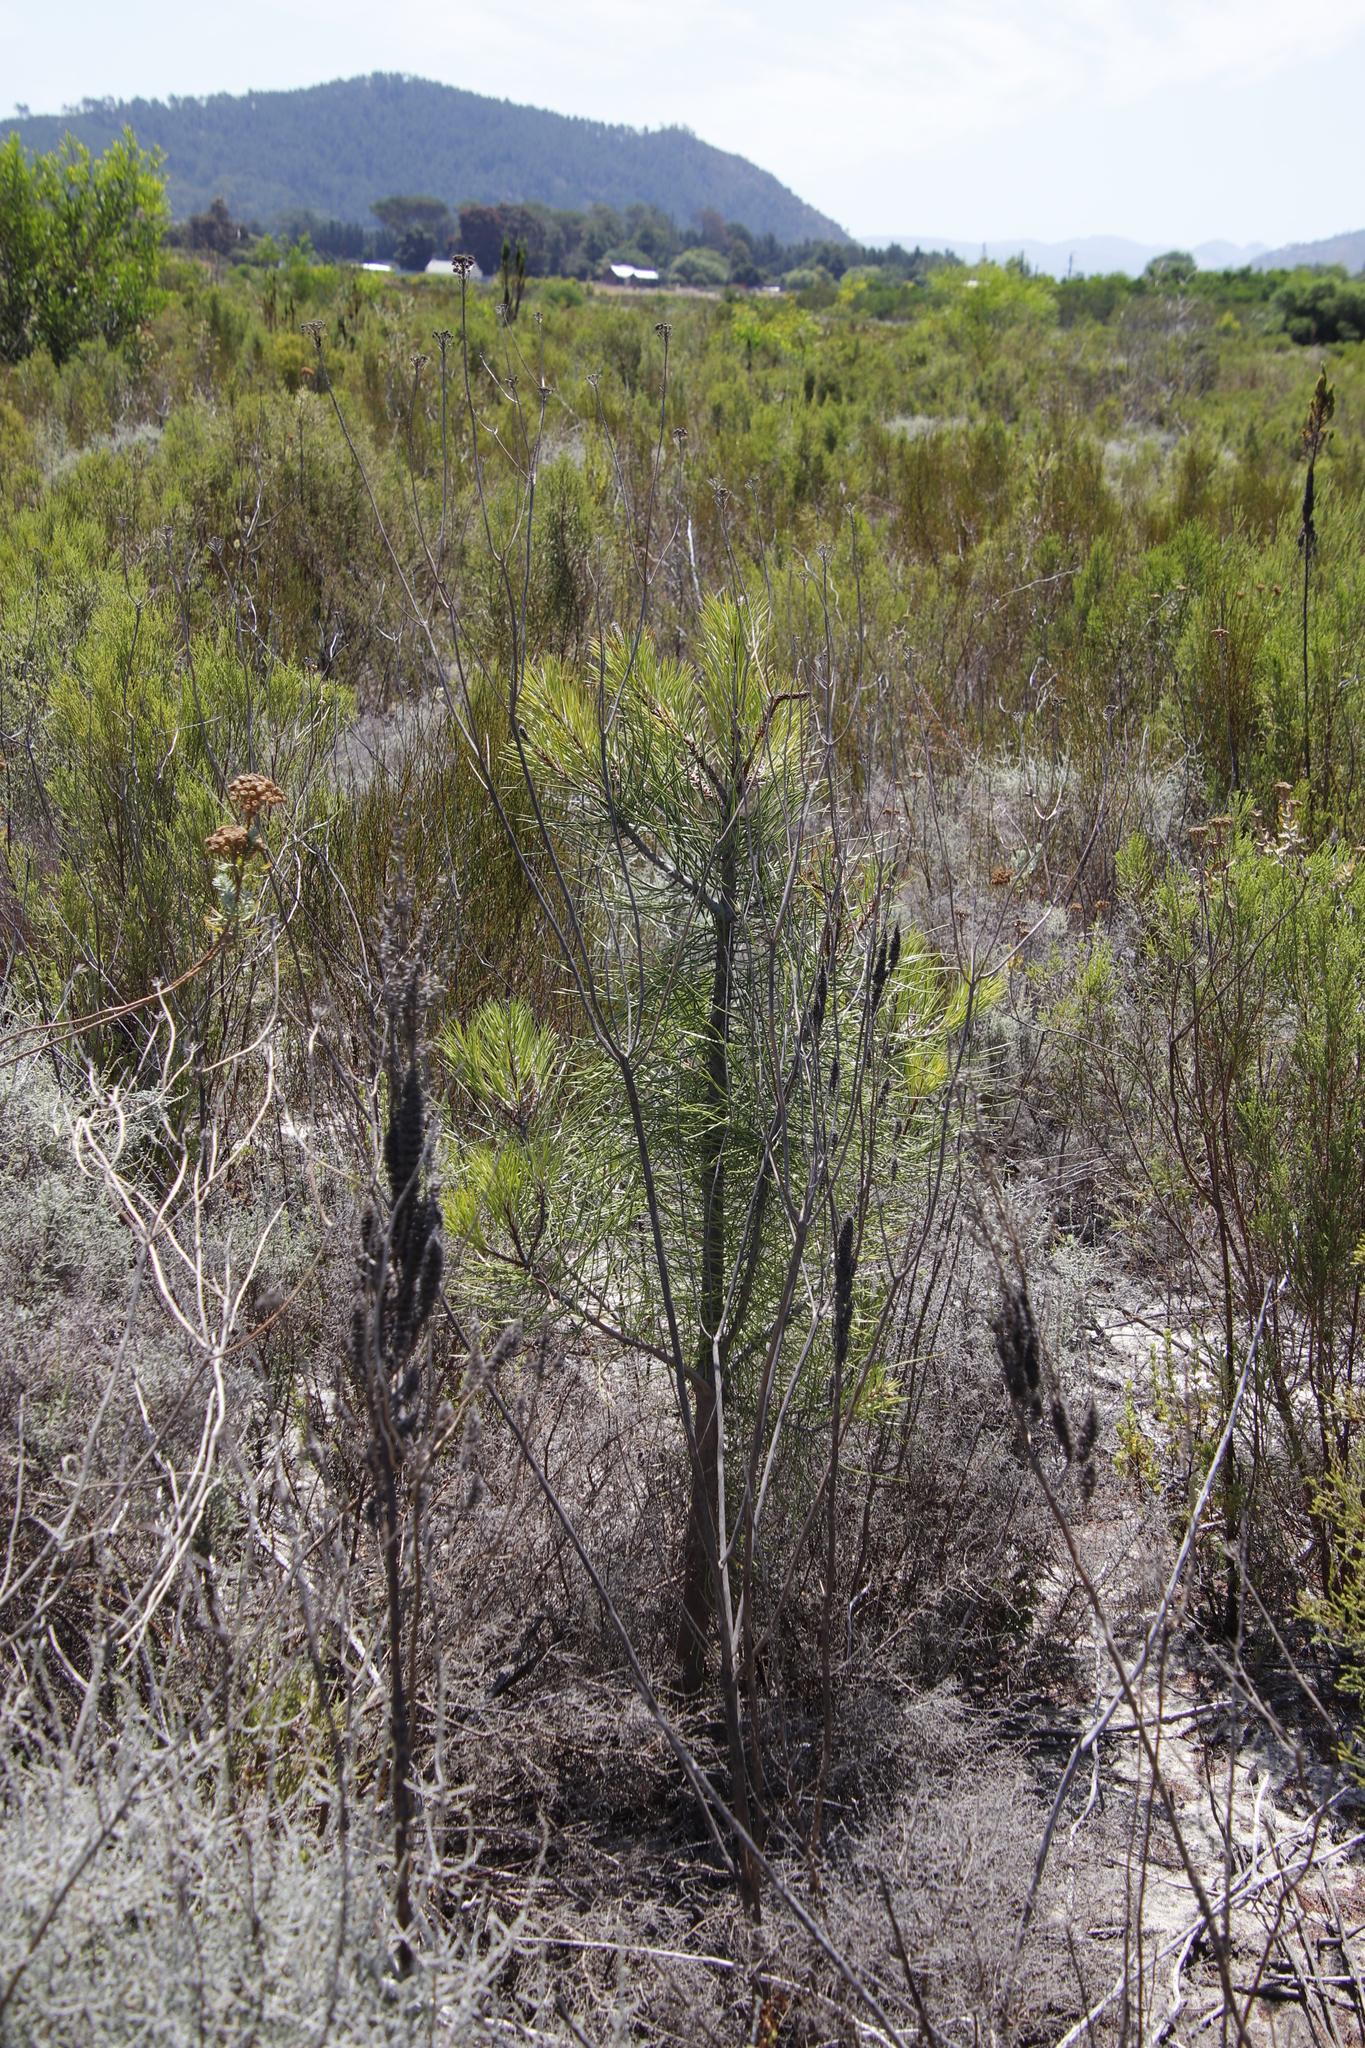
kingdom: Plantae
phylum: Tracheophyta
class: Pinopsida
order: Pinales
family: Pinaceae
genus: Pinus
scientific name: Pinus pinaster
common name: Maritime pine
